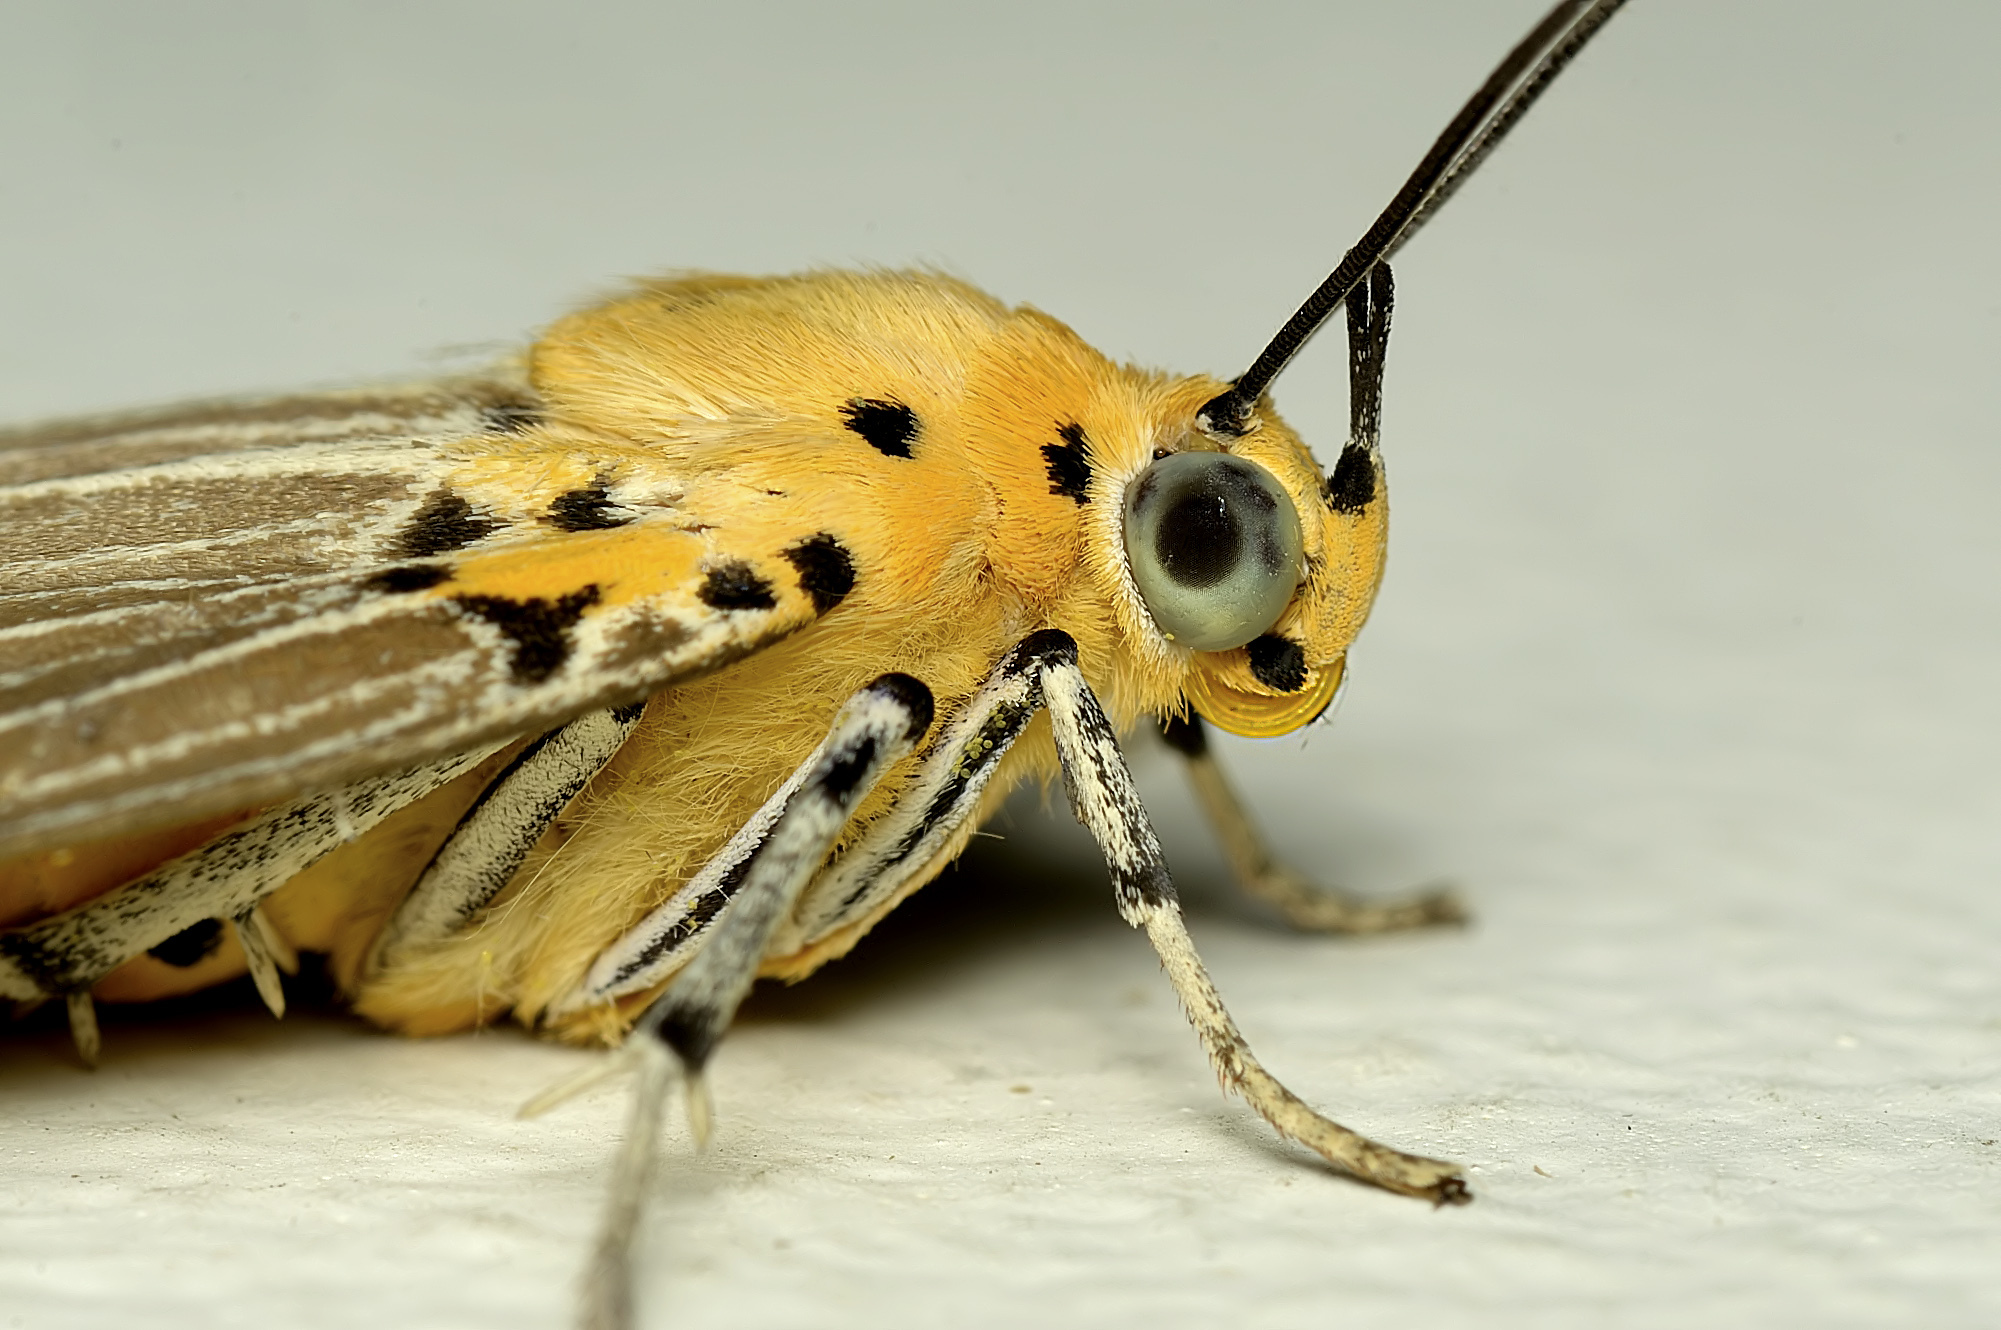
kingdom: Animalia
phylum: Arthropoda
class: Insecta
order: Lepidoptera
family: Erebidae
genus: Asota
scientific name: Asota canaraica
